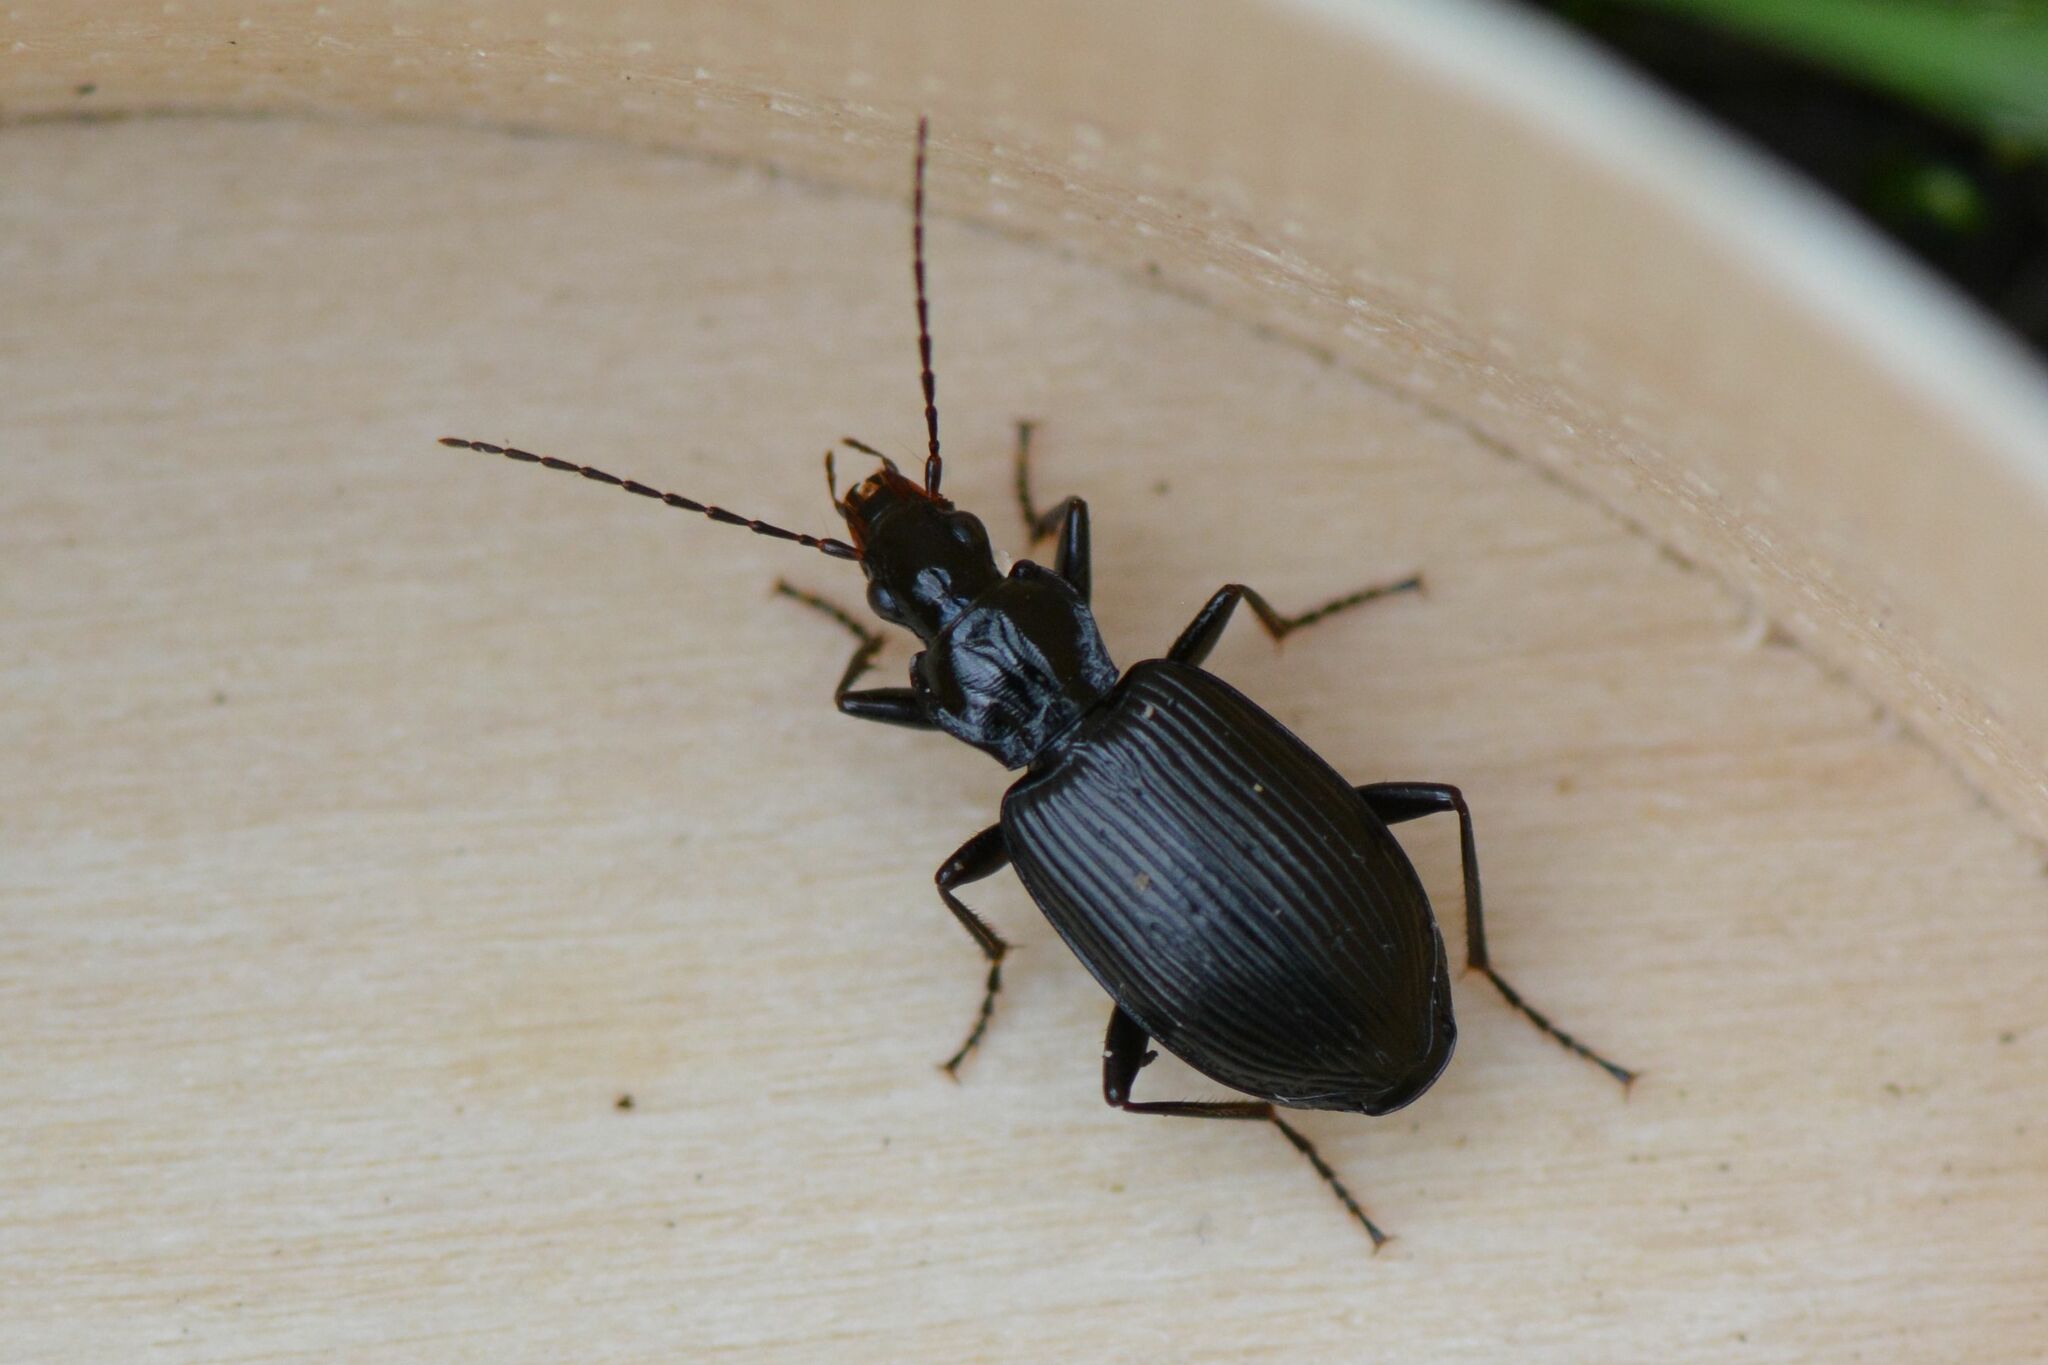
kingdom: Animalia
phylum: Arthropoda
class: Insecta
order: Coleoptera
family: Carabidae
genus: Platynus
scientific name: Platynus assimilis
